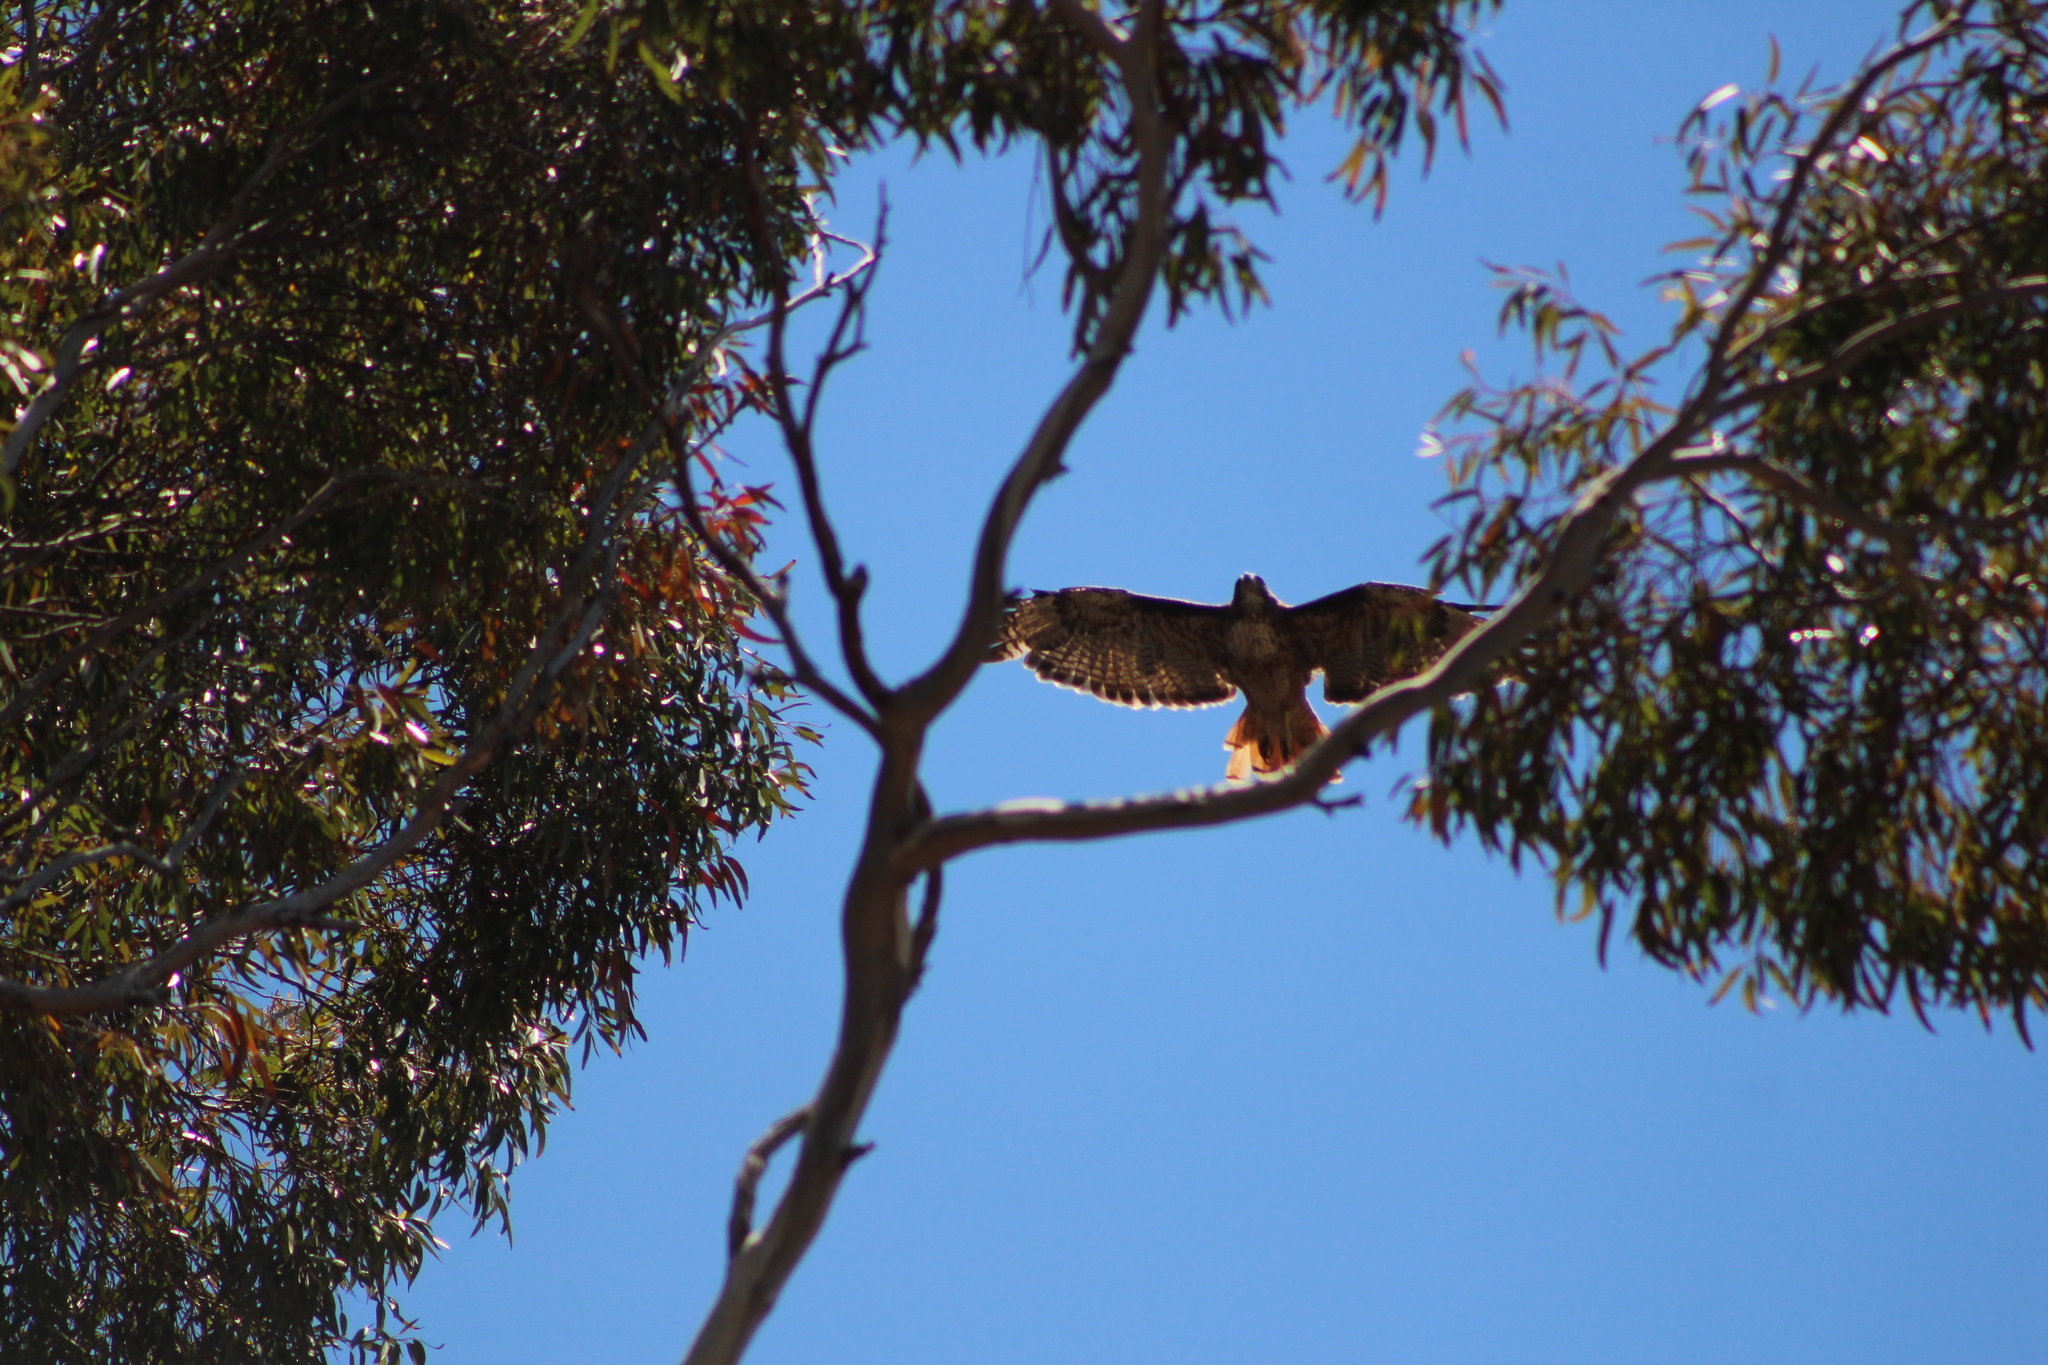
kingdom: Animalia
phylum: Chordata
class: Aves
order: Accipitriformes
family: Accipitridae
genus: Buteo
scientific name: Buteo jamaicensis
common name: Red-tailed hawk
